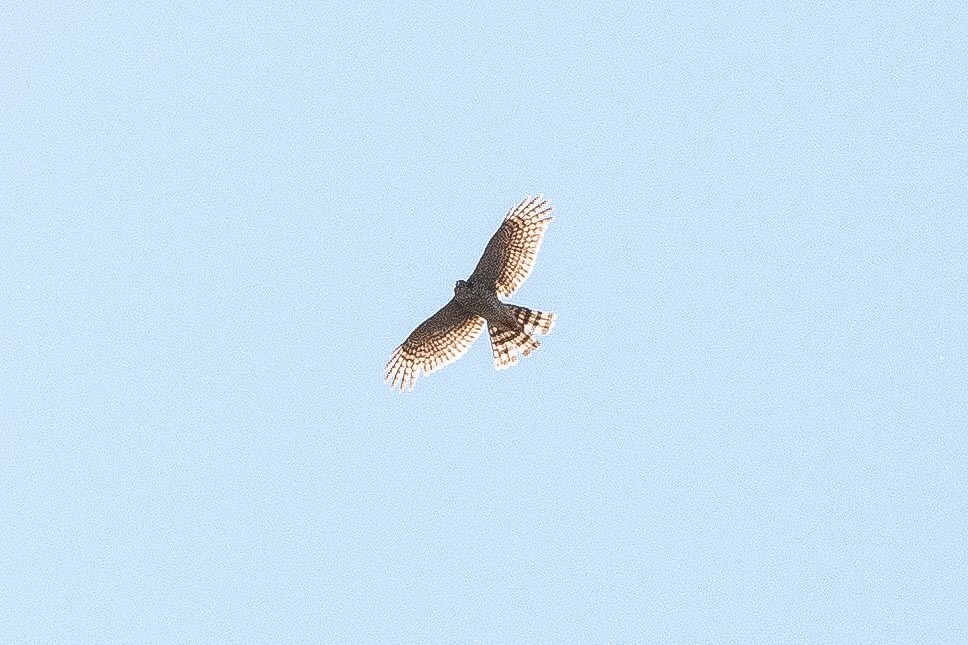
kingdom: Animalia
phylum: Chordata
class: Aves
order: Accipitriformes
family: Accipitridae
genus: Accipiter
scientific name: Accipiter nisus
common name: Eurasian sparrowhawk
